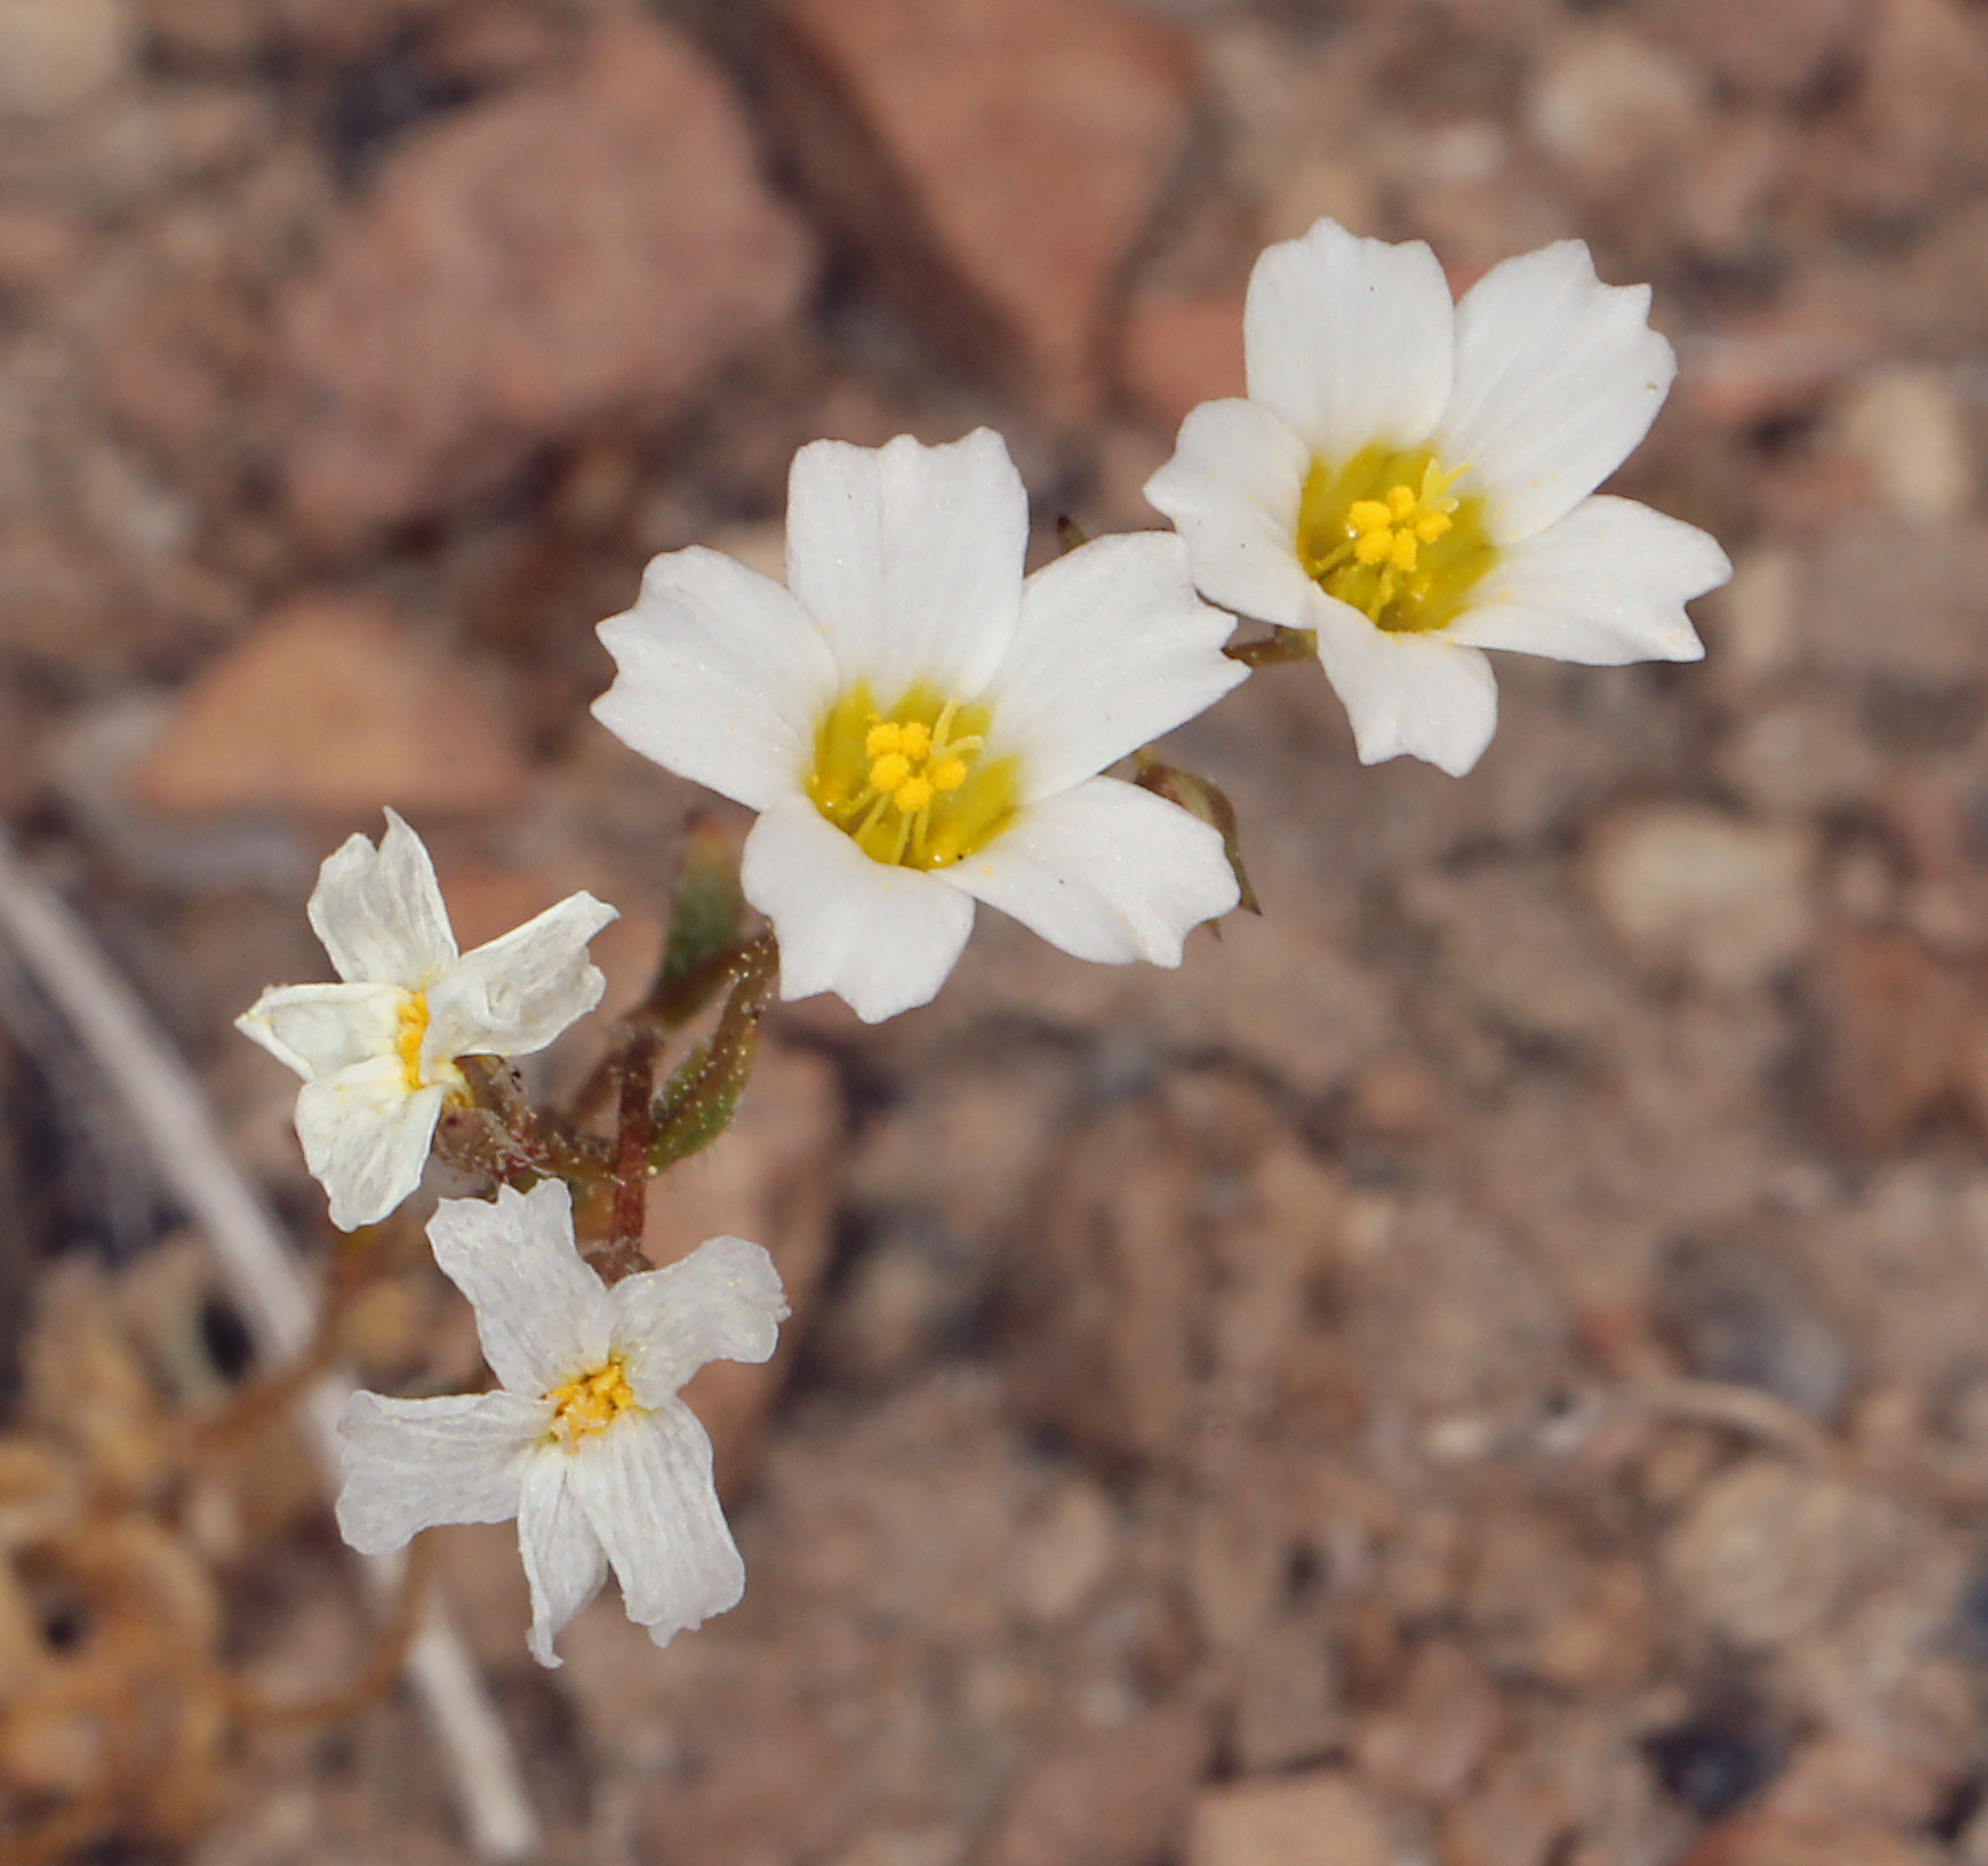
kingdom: Plantae
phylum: Tracheophyta
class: Magnoliopsida
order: Ericales
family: Polemoniaceae
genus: Linanthus
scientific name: Linanthus inyoensis
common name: Inyo gilia
